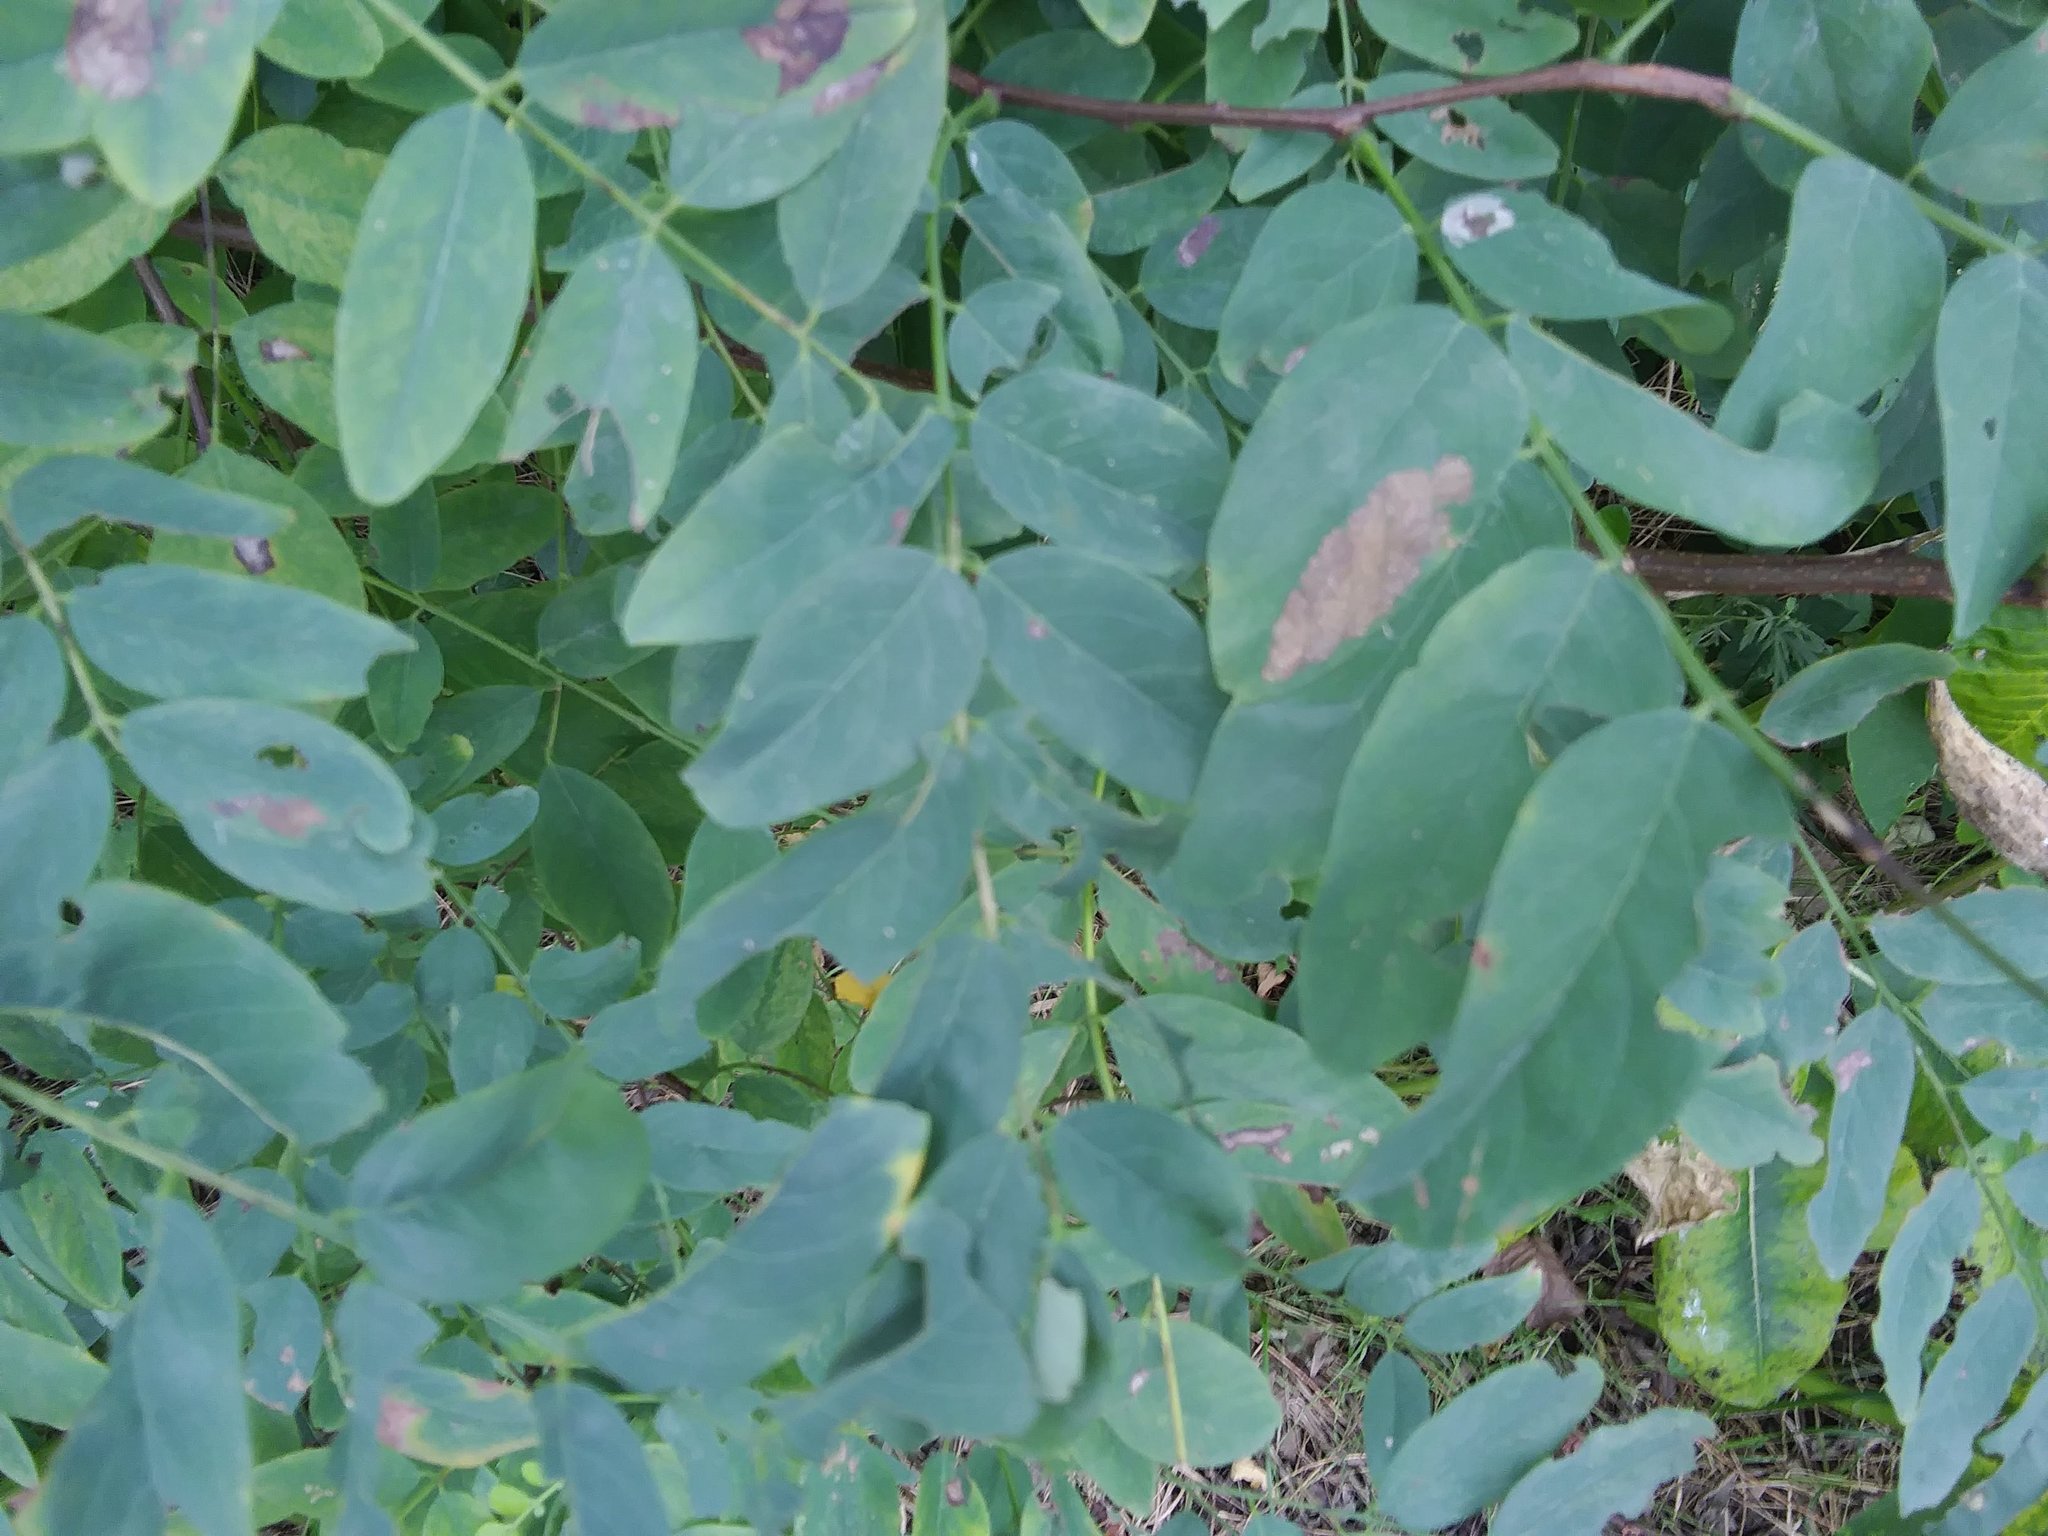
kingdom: Plantae
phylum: Tracheophyta
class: Magnoliopsida
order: Gentianales
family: Apocynaceae
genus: Asclepias
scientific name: Asclepias syriaca
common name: Common milkweed
